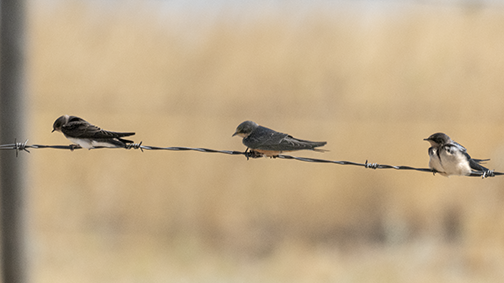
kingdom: Animalia
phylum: Chordata
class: Aves
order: Passeriformes
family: Hirundinidae
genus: Hirundo
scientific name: Hirundo rustica
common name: Barn swallow
